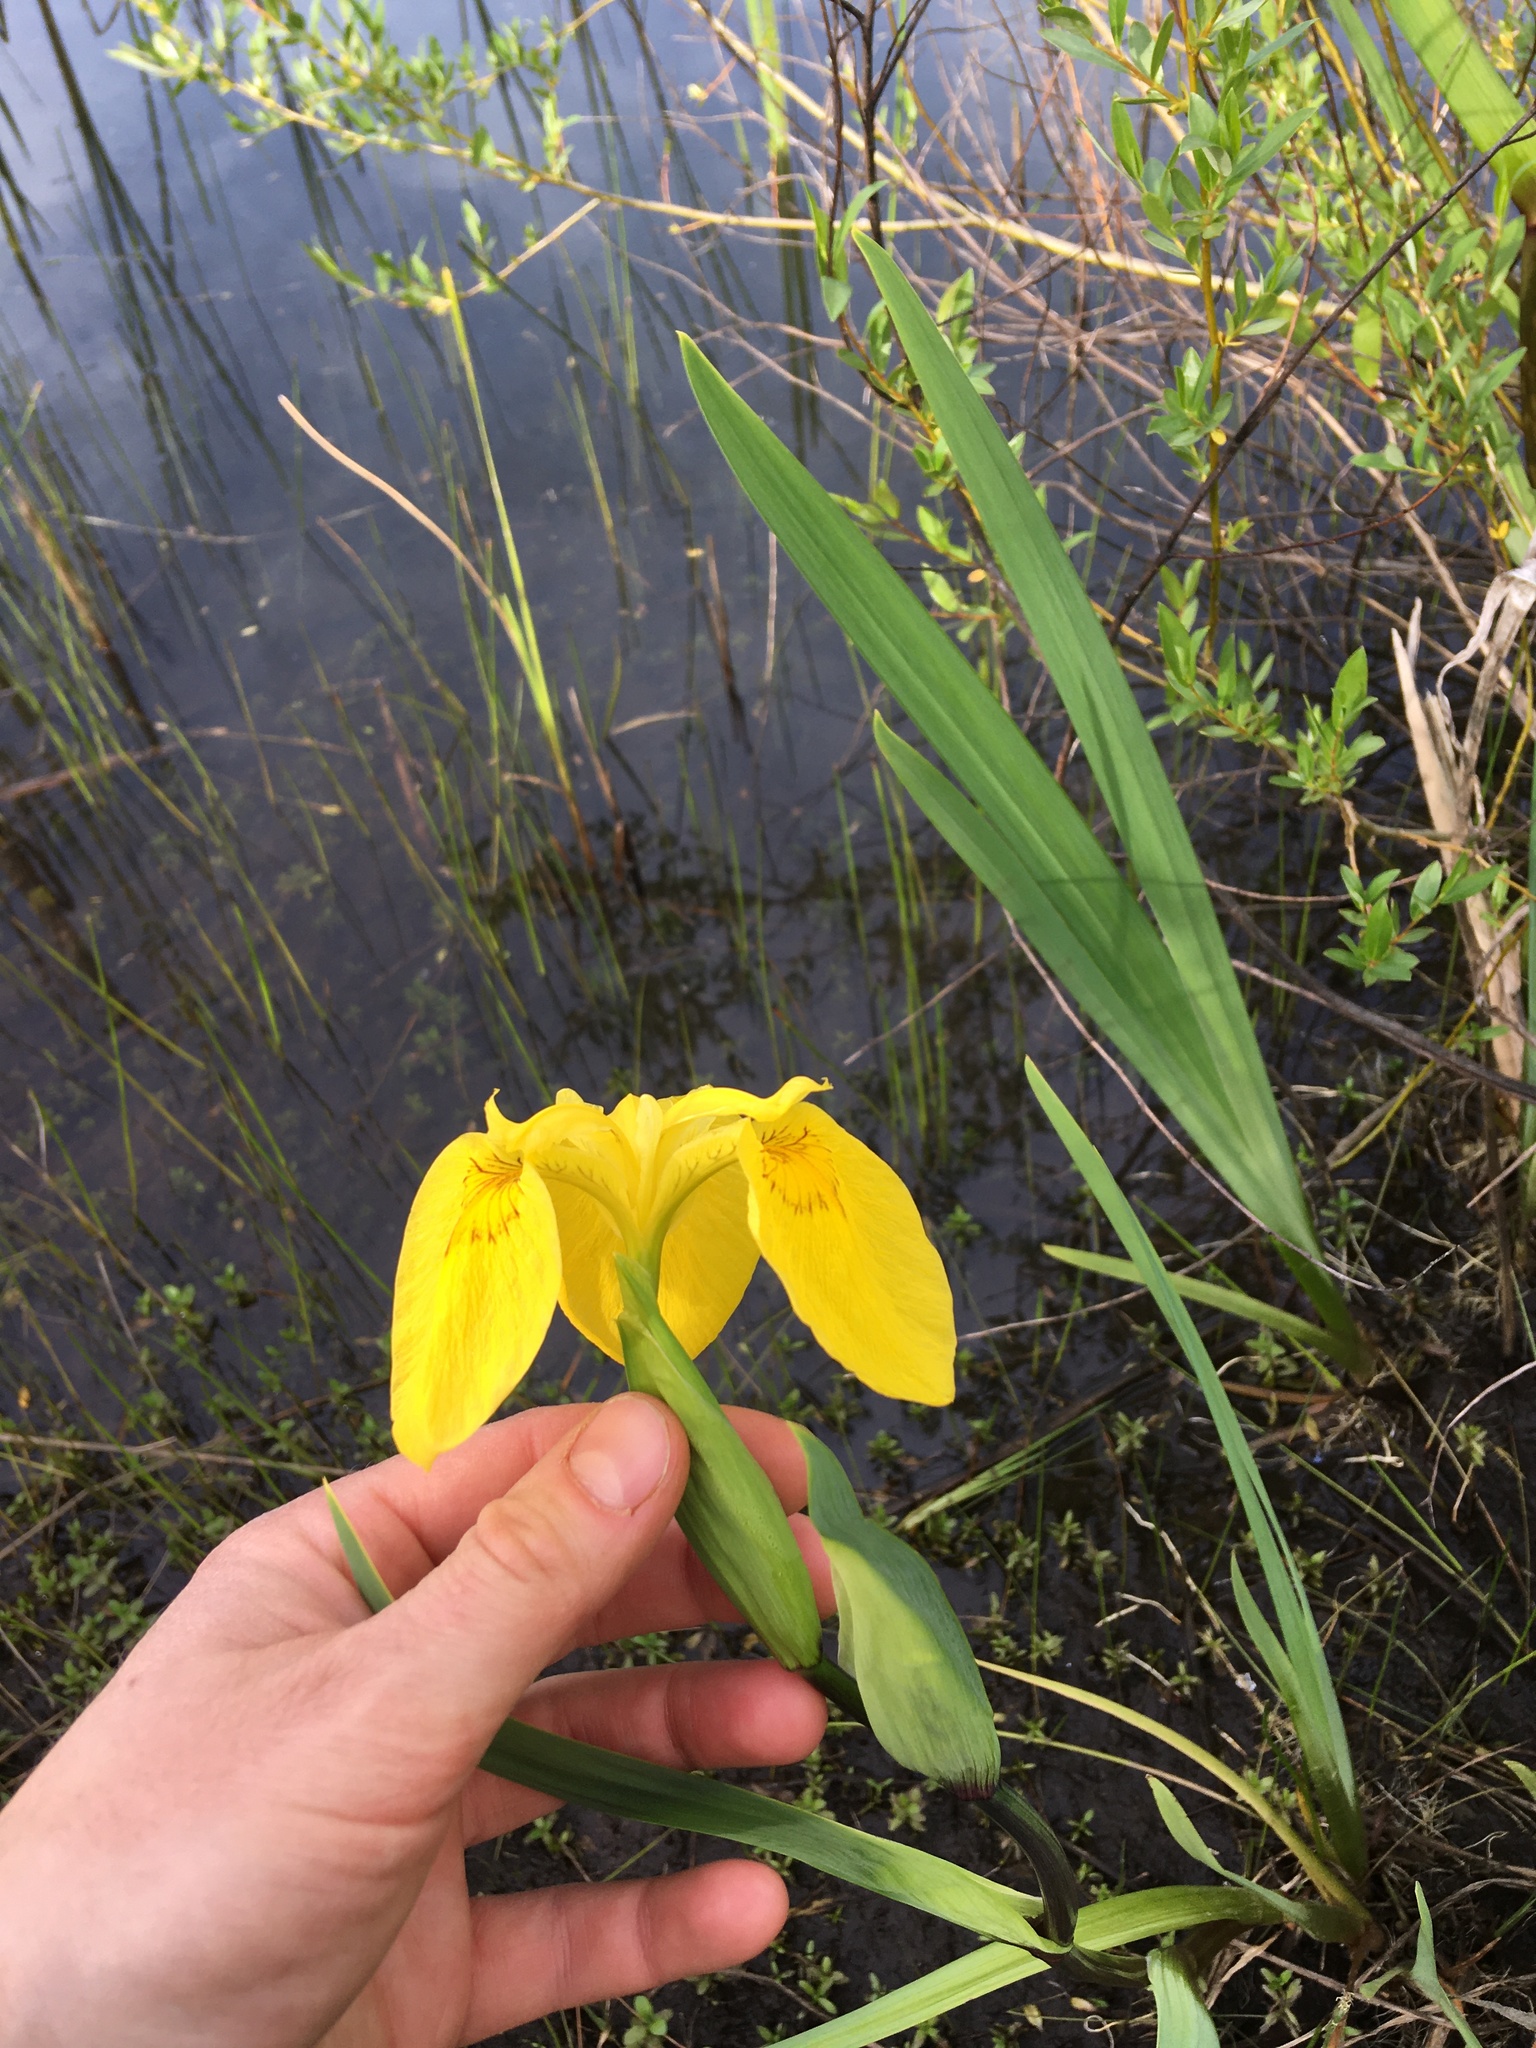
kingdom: Plantae
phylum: Tracheophyta
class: Liliopsida
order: Asparagales
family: Iridaceae
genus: Iris
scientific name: Iris pseudacorus
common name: Yellow flag
